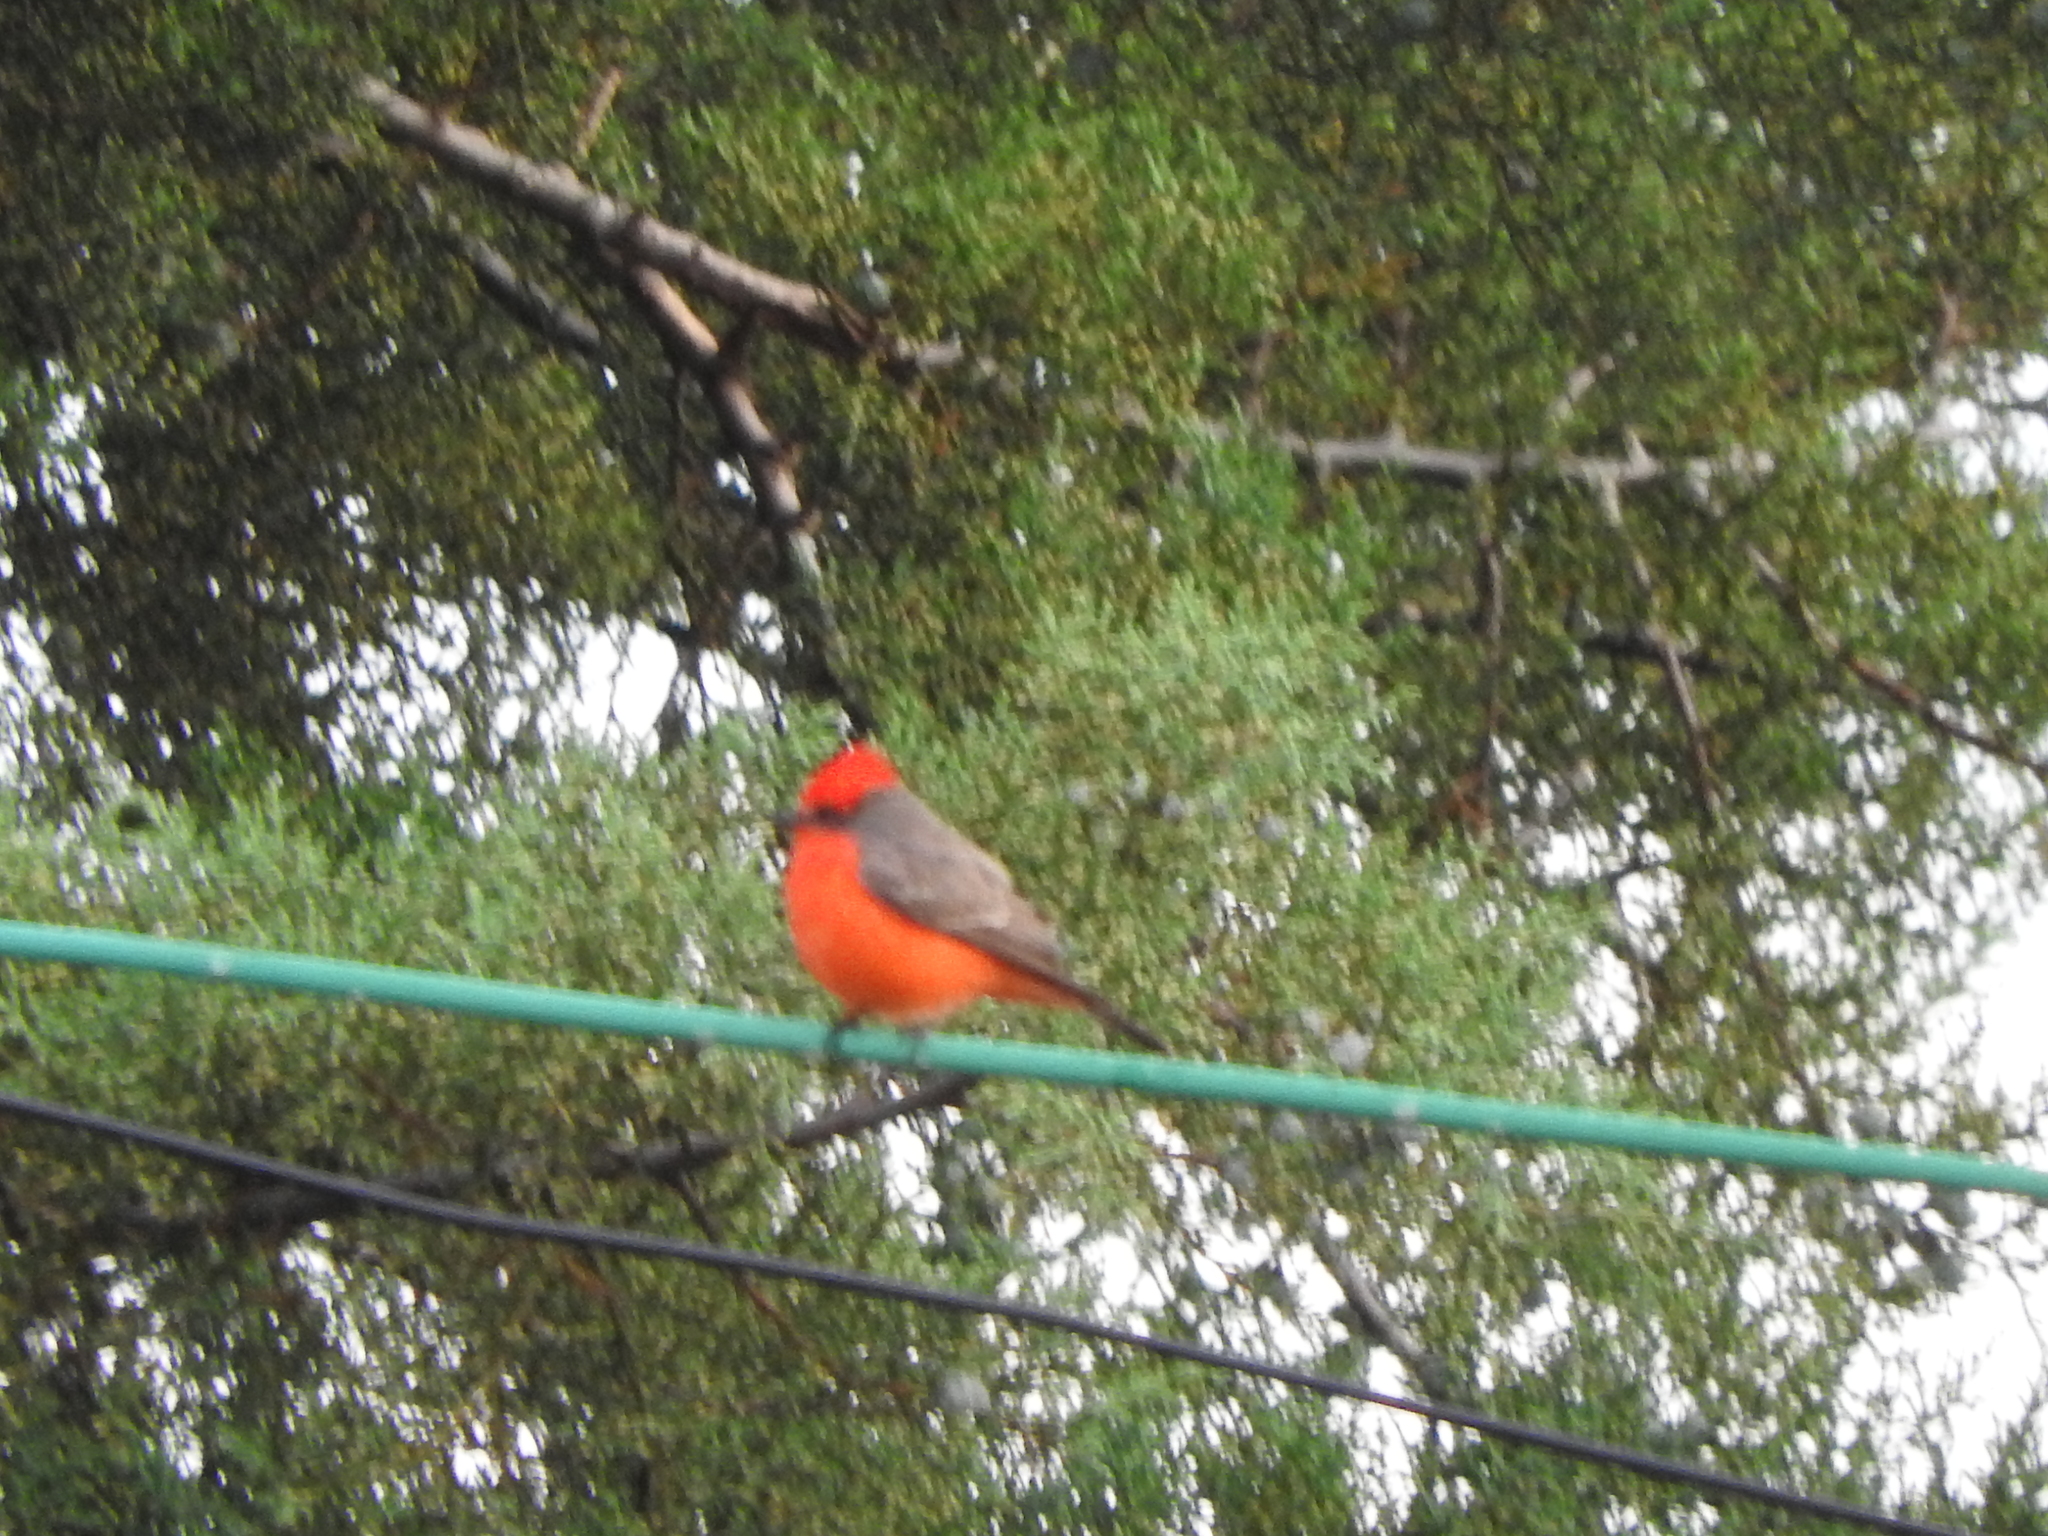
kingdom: Animalia
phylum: Chordata
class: Aves
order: Passeriformes
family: Tyrannidae
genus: Pyrocephalus
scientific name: Pyrocephalus rubinus
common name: Vermilion flycatcher
